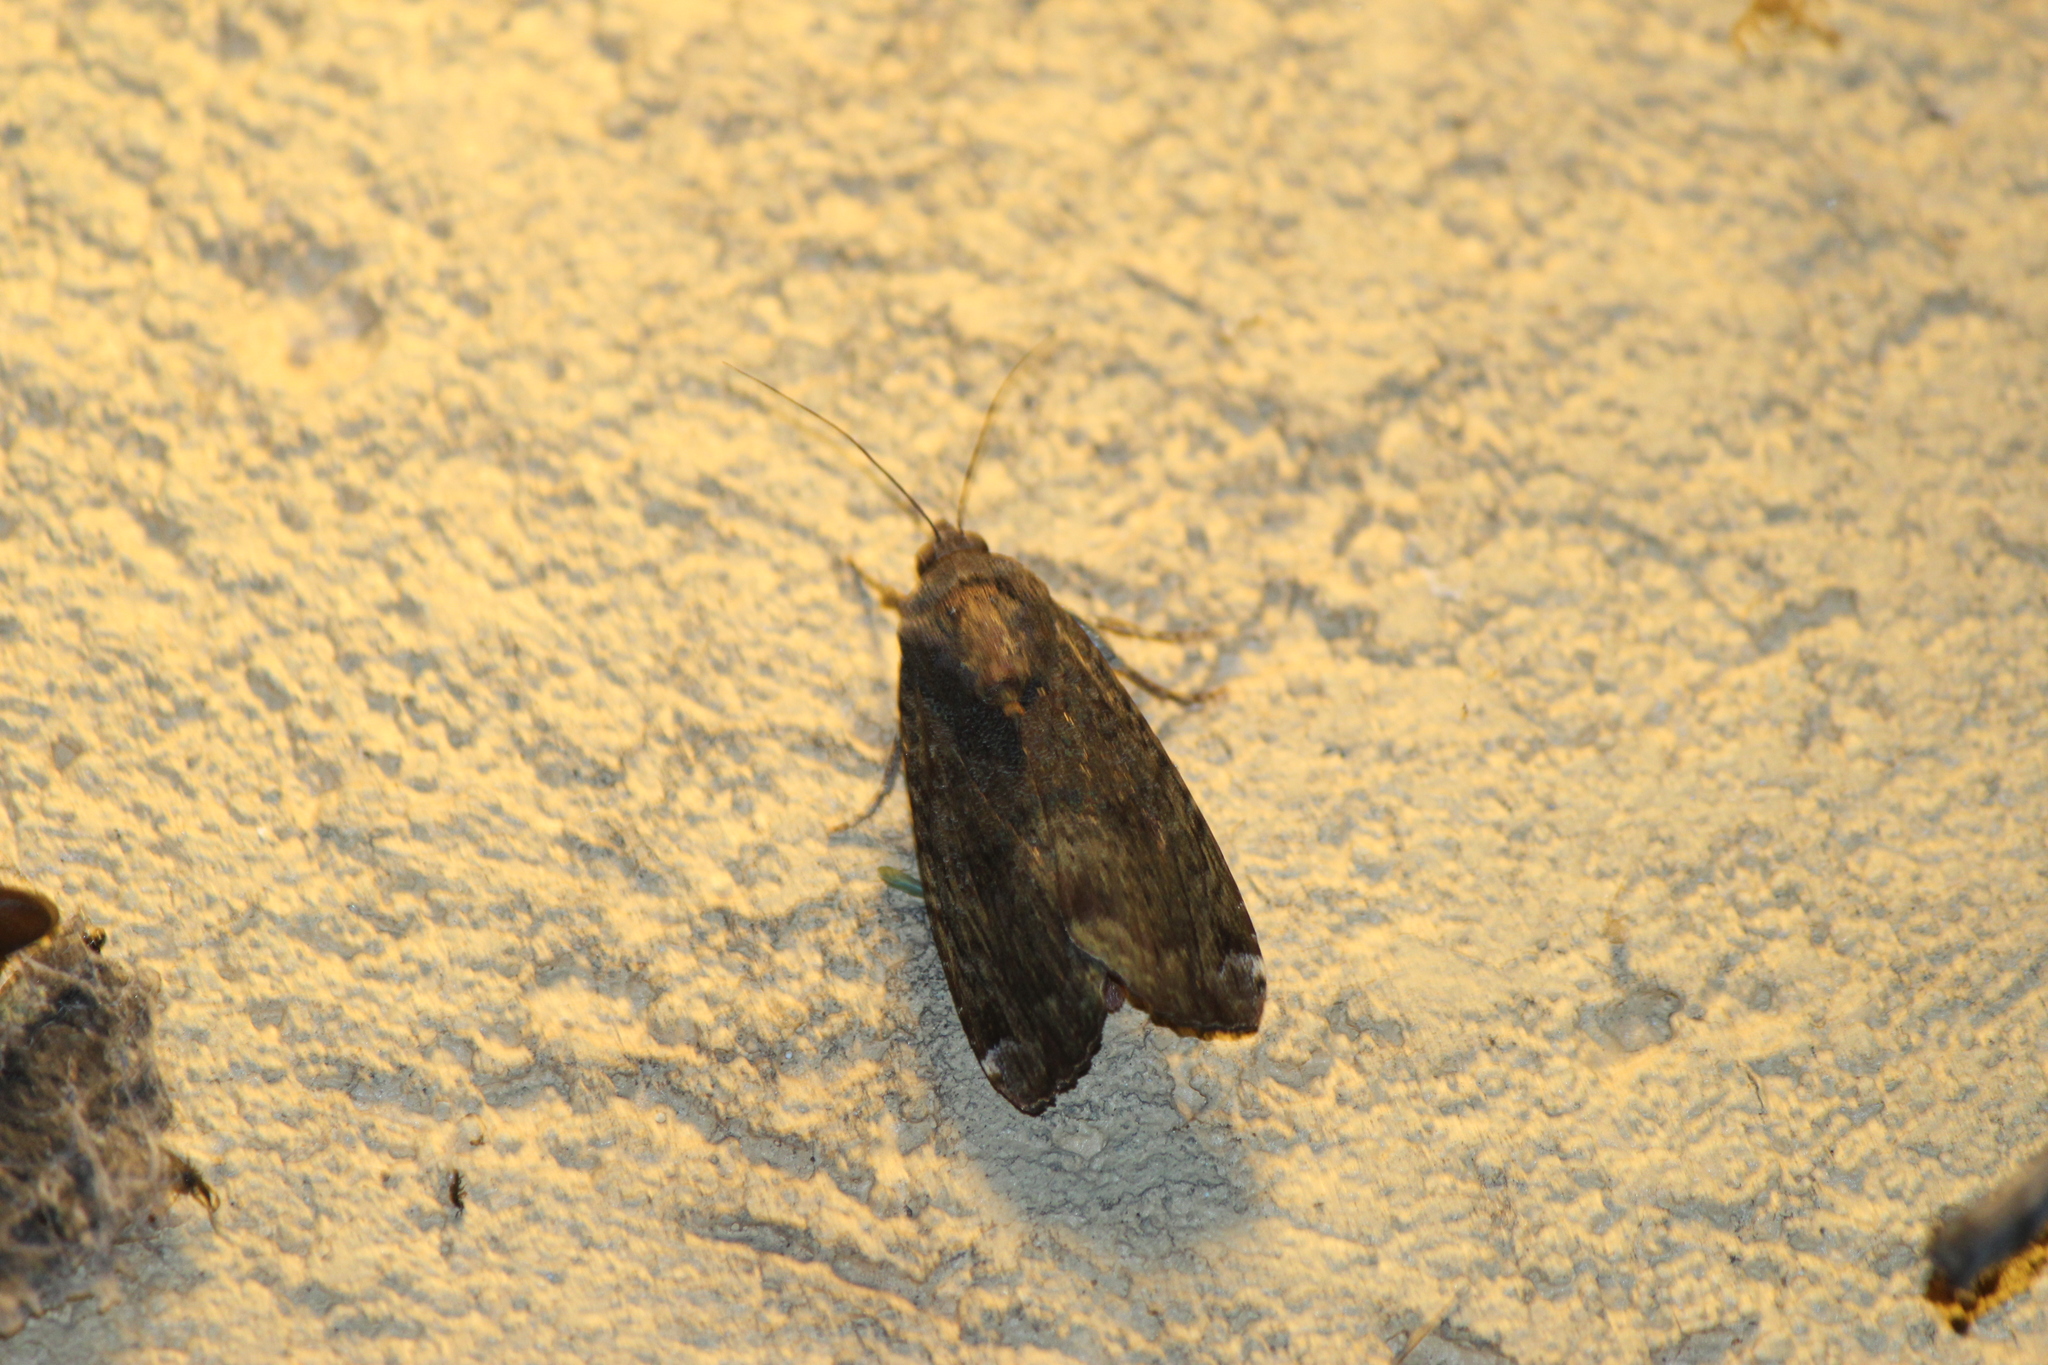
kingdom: Animalia
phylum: Arthropoda
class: Insecta
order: Lepidoptera
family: Noctuidae
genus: Magusa
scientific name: Magusa divaricata
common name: Orb narrow-winged moth
